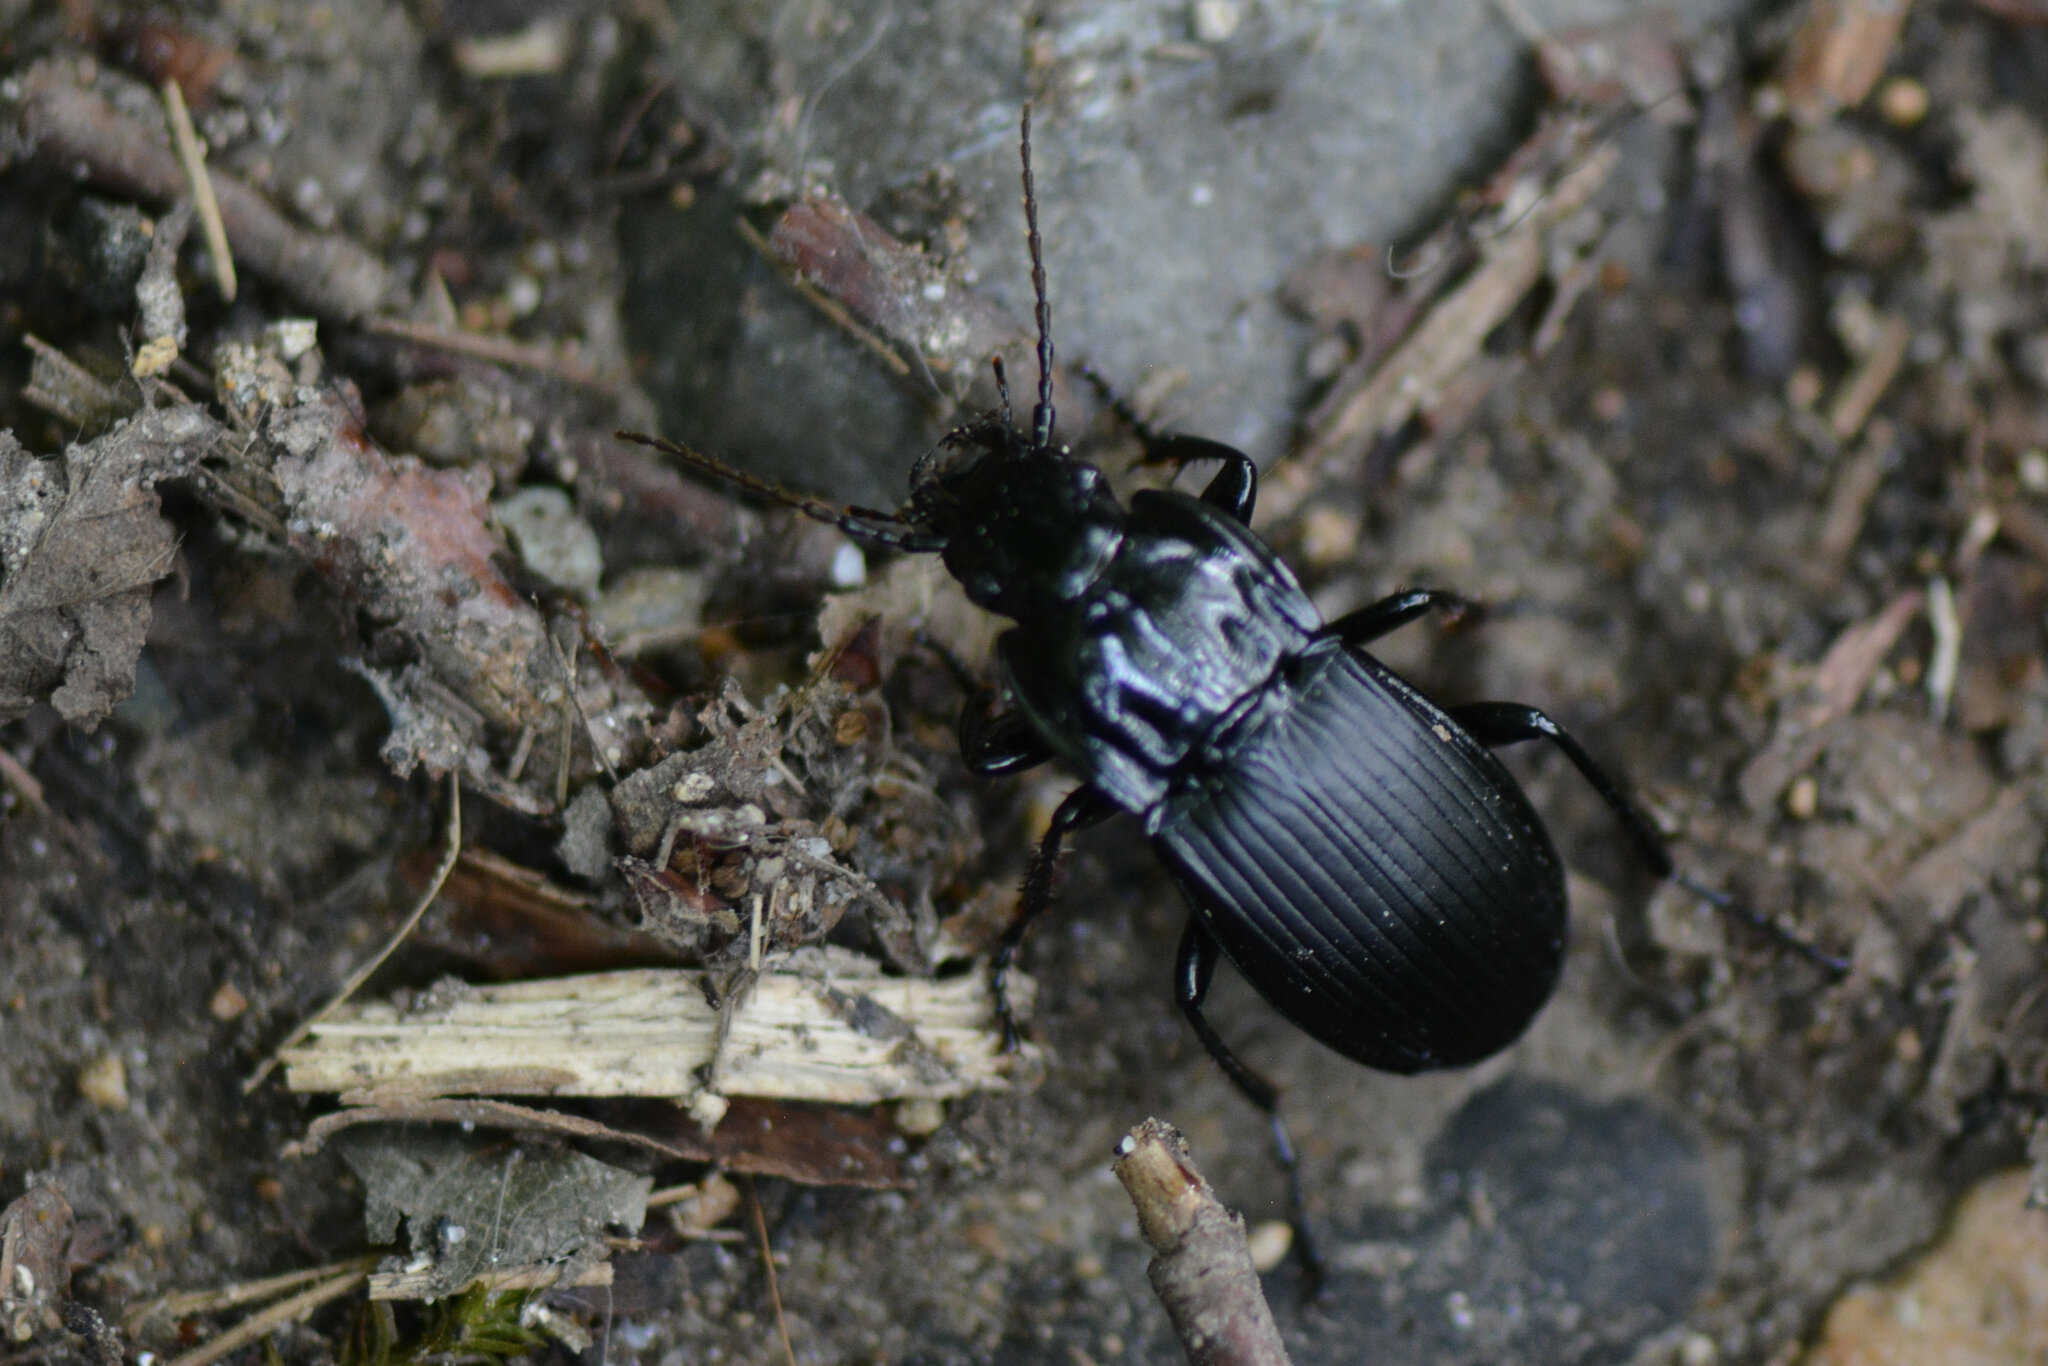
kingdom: Animalia
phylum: Arthropoda
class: Insecta
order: Coleoptera
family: Carabidae
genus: Abax
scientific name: Abax parallelepipedus
